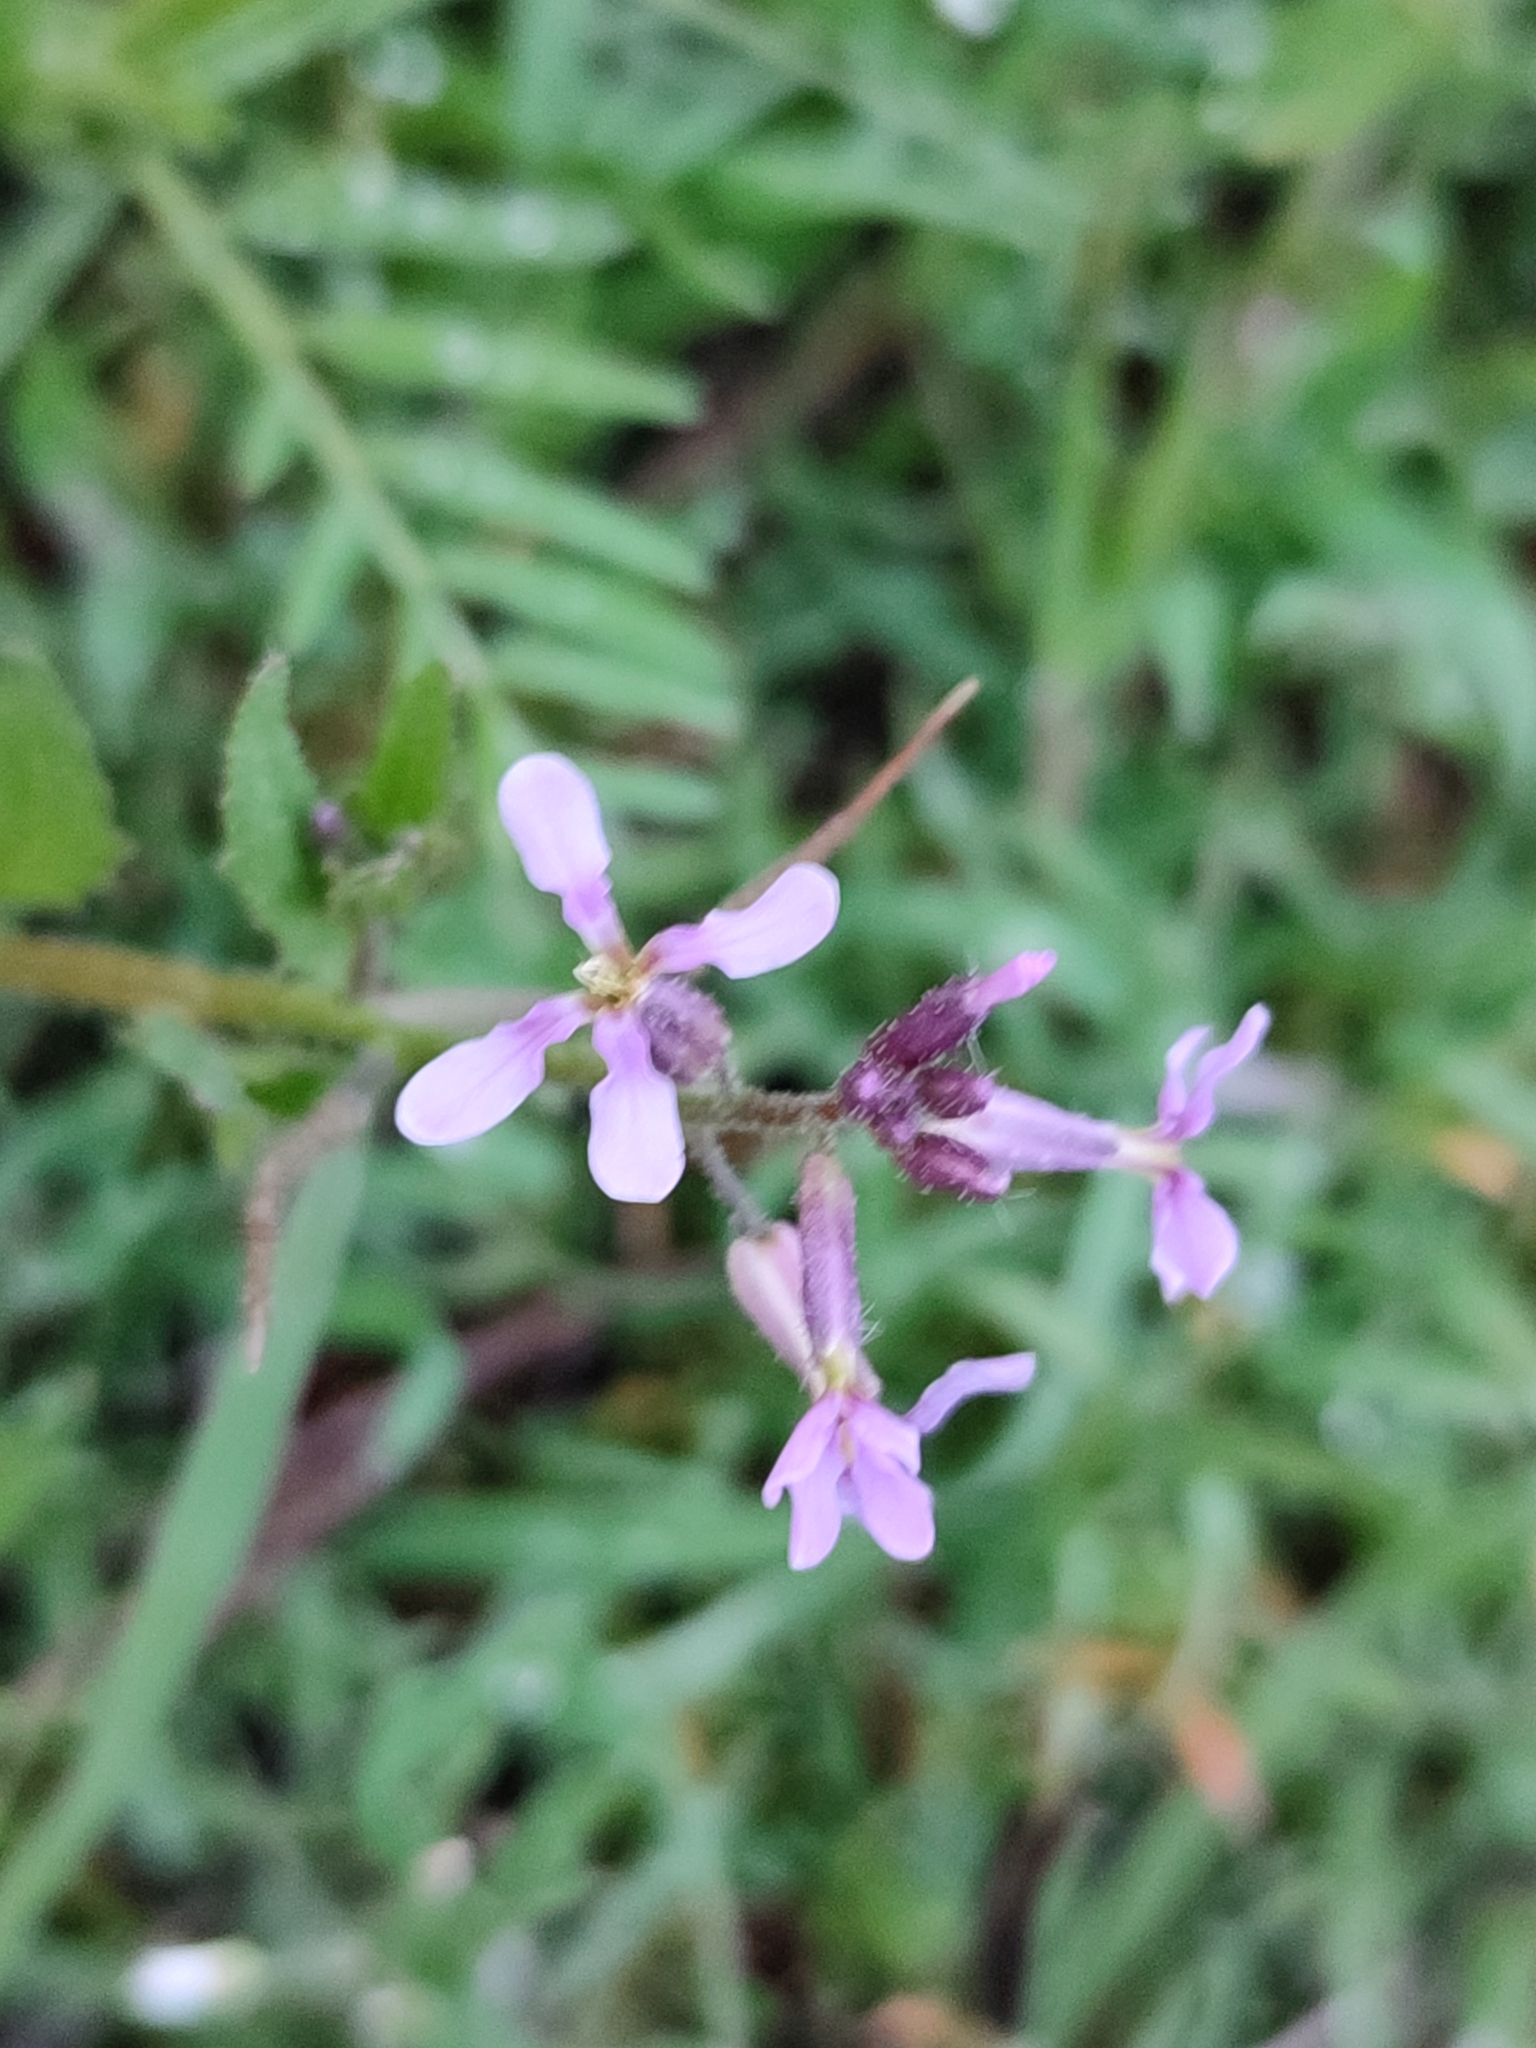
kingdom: Plantae
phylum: Tracheophyta
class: Magnoliopsida
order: Brassicales
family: Brassicaceae
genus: Chorispora
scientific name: Chorispora tenella
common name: Crossflower
